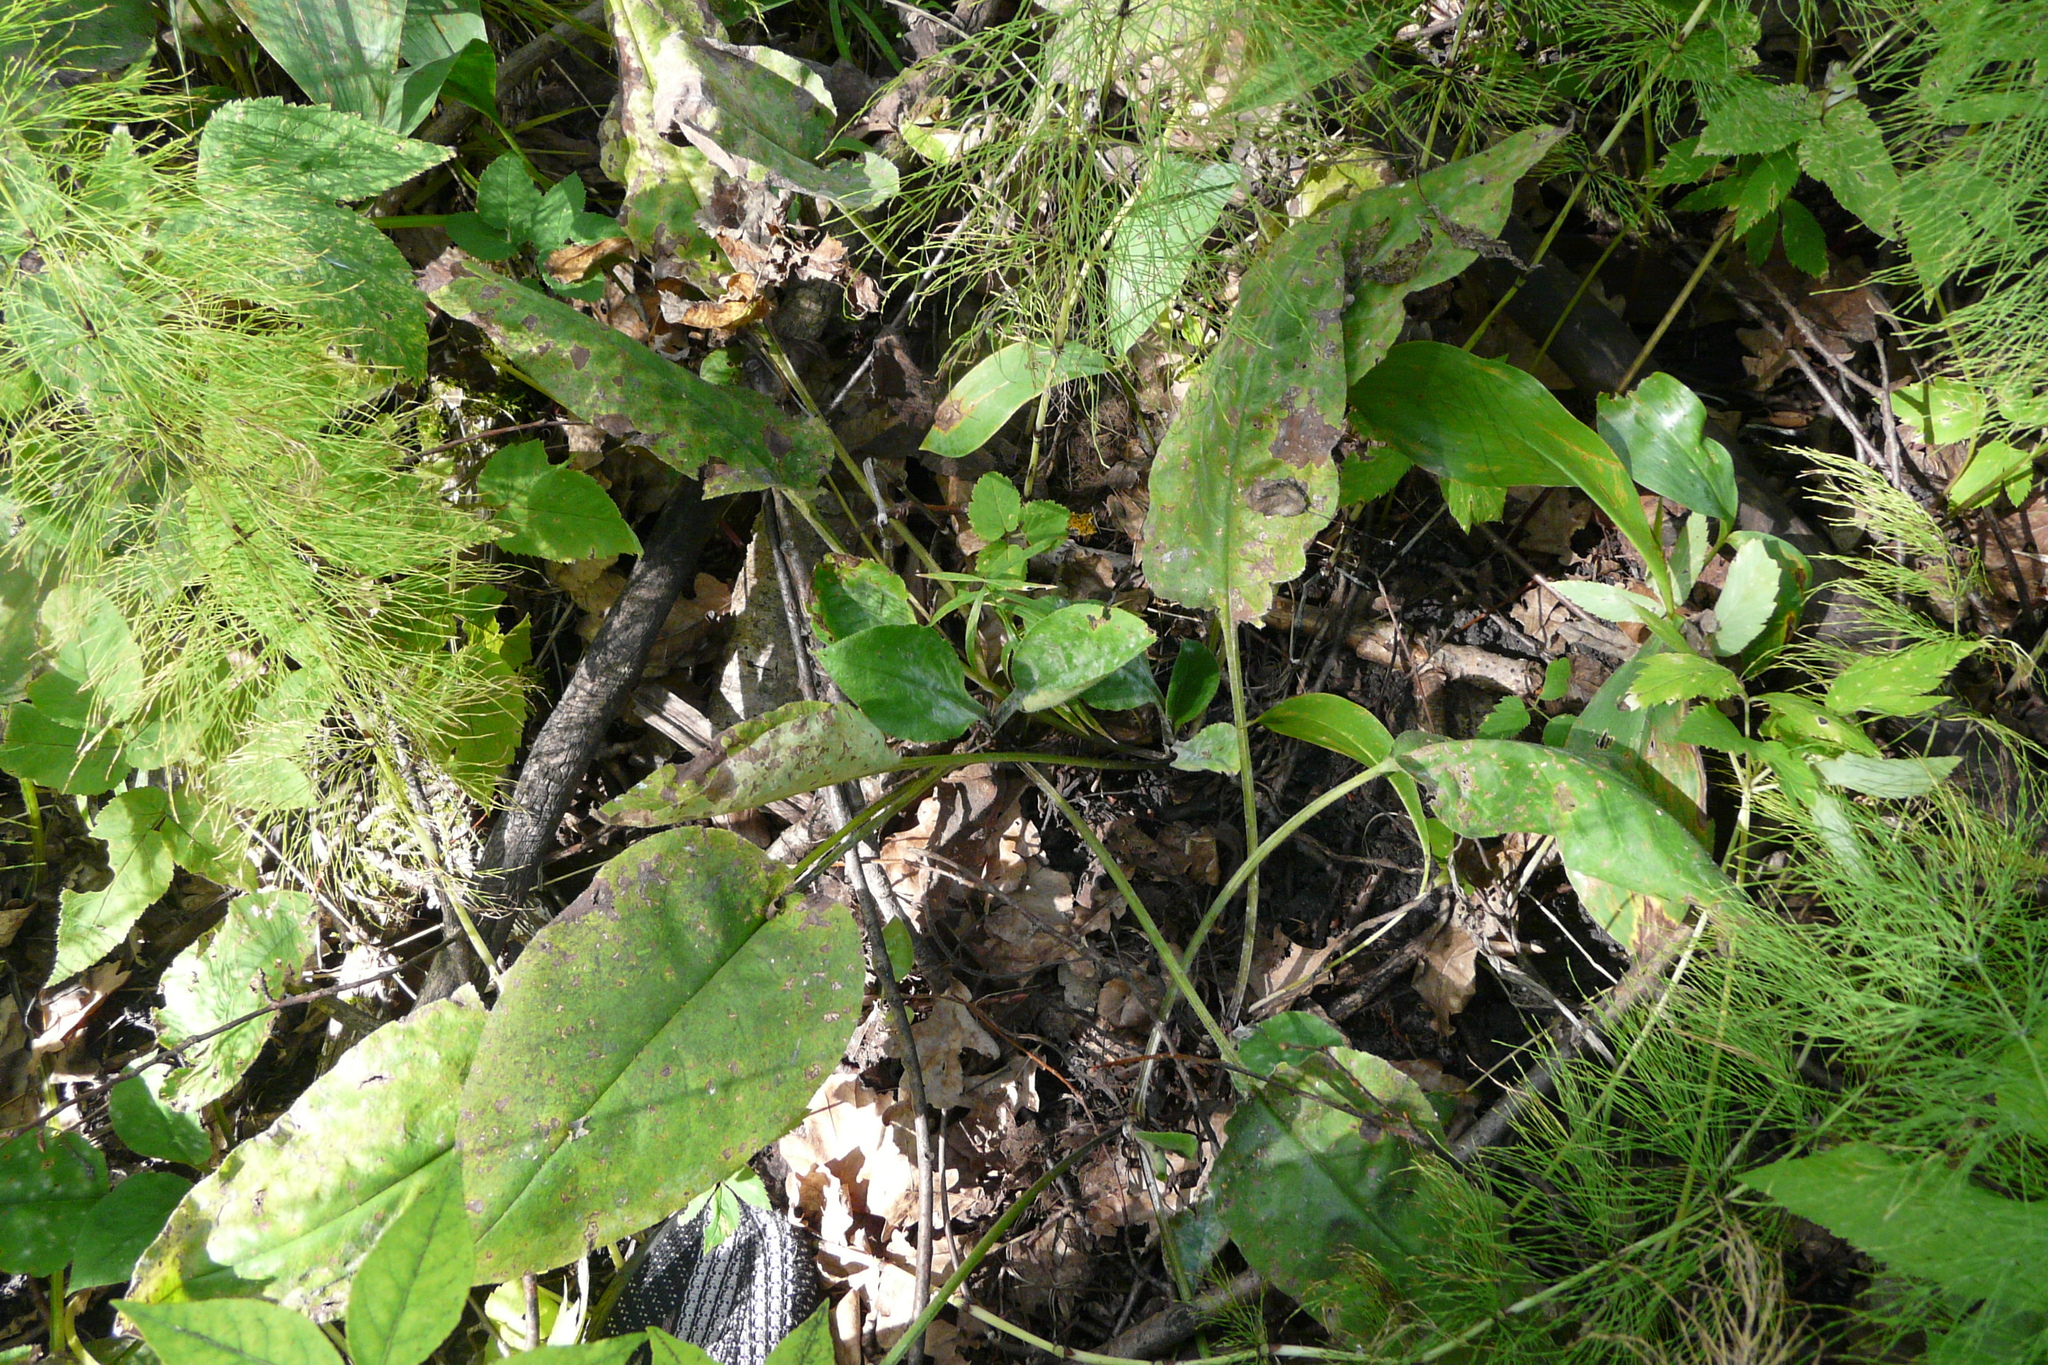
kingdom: Plantae
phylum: Tracheophyta
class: Magnoliopsida
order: Boraginales
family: Boraginaceae
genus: Pulmonaria
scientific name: Pulmonaria obscura
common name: Suffolk lungwort
